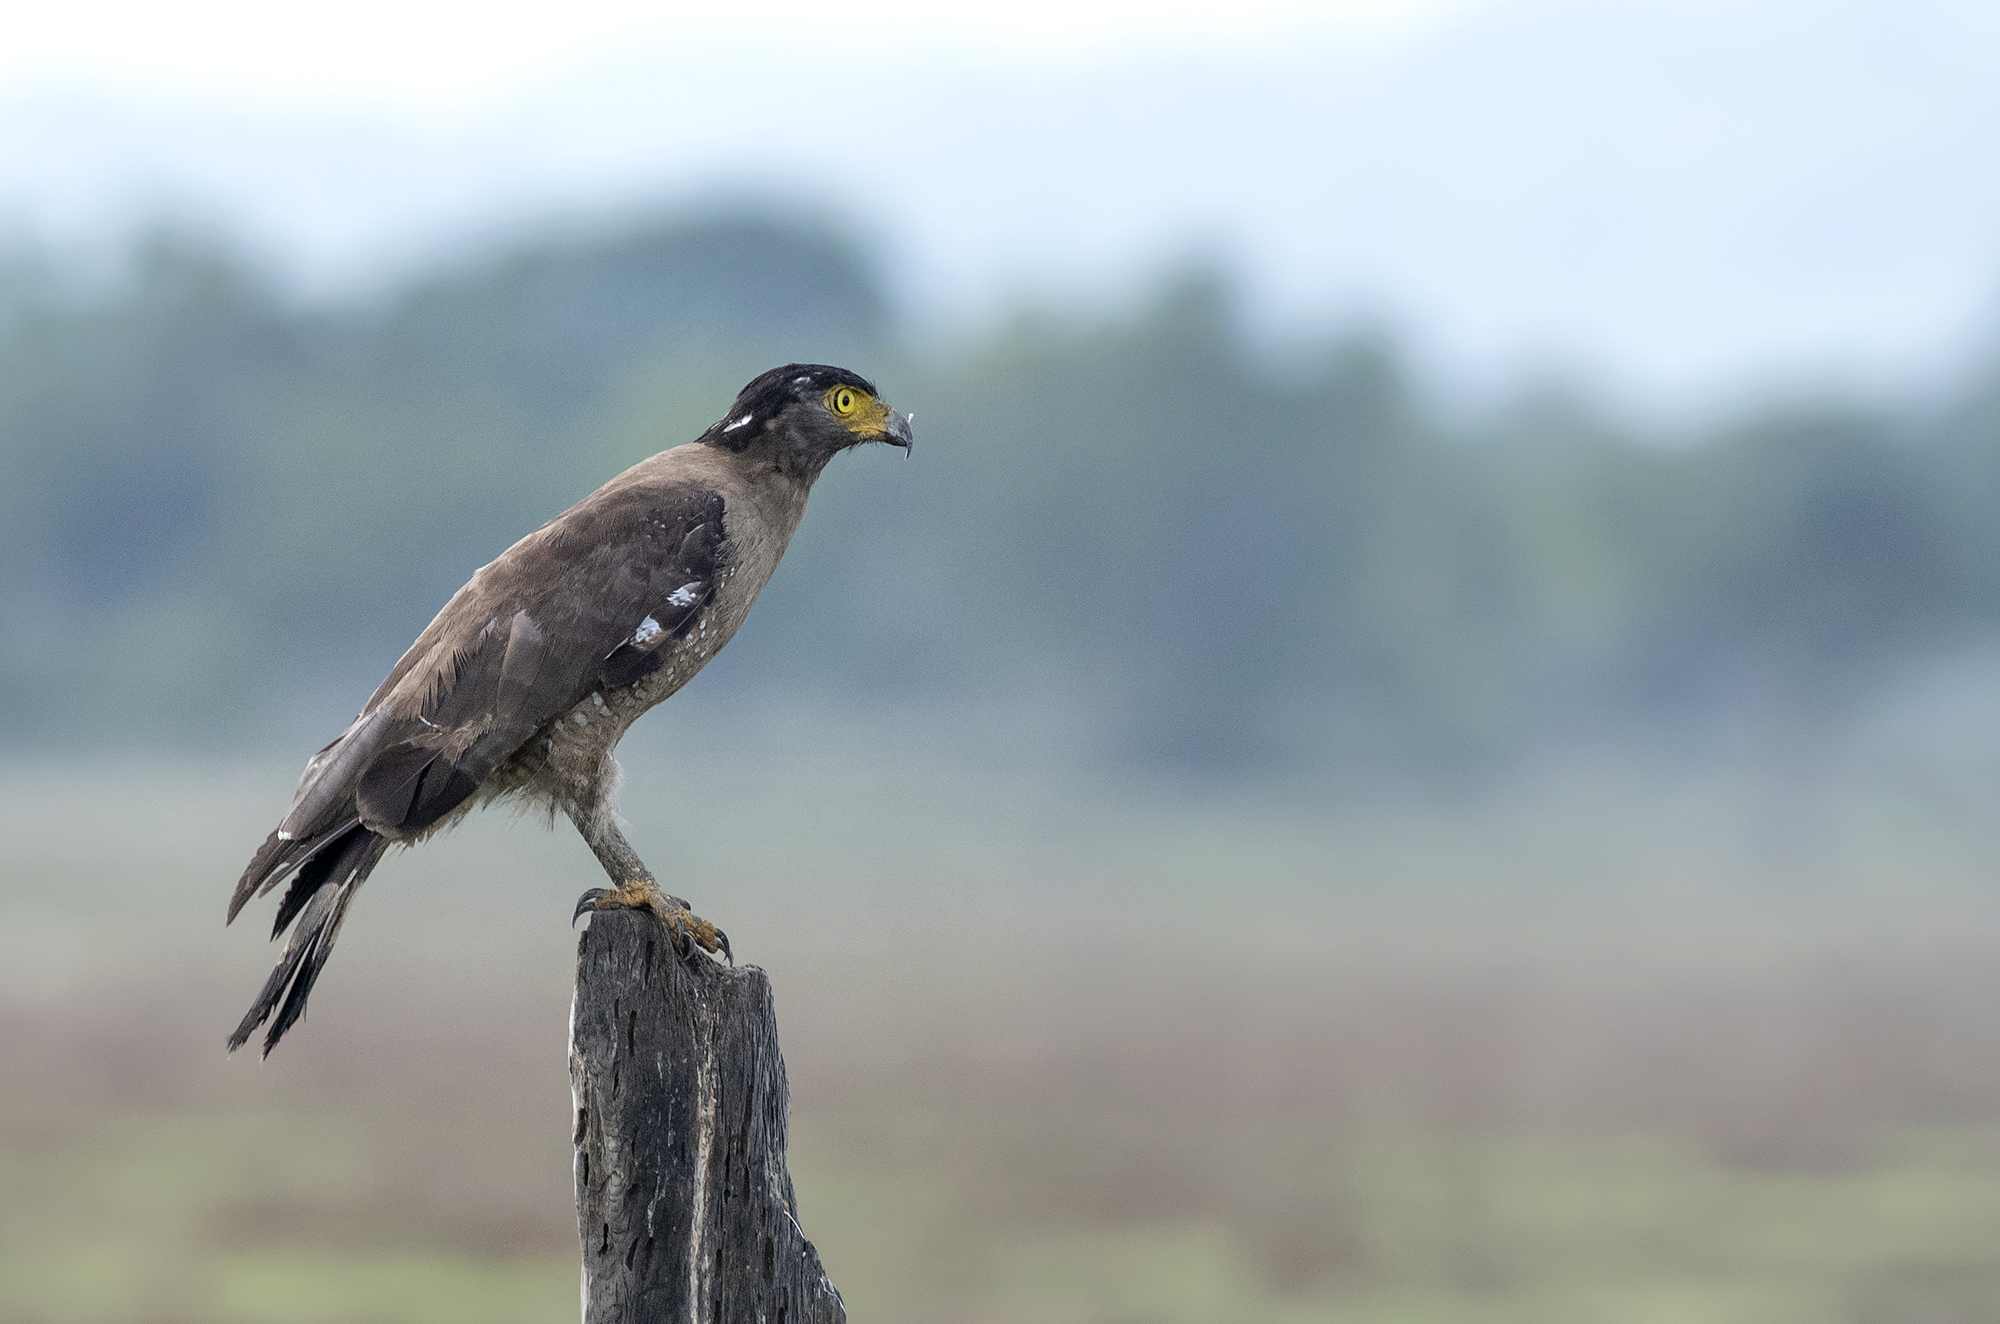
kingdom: Animalia
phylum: Chordata
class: Aves
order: Accipitriformes
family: Accipitridae
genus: Spilornis
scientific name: Spilornis cheela
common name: Crested serpent eagle
